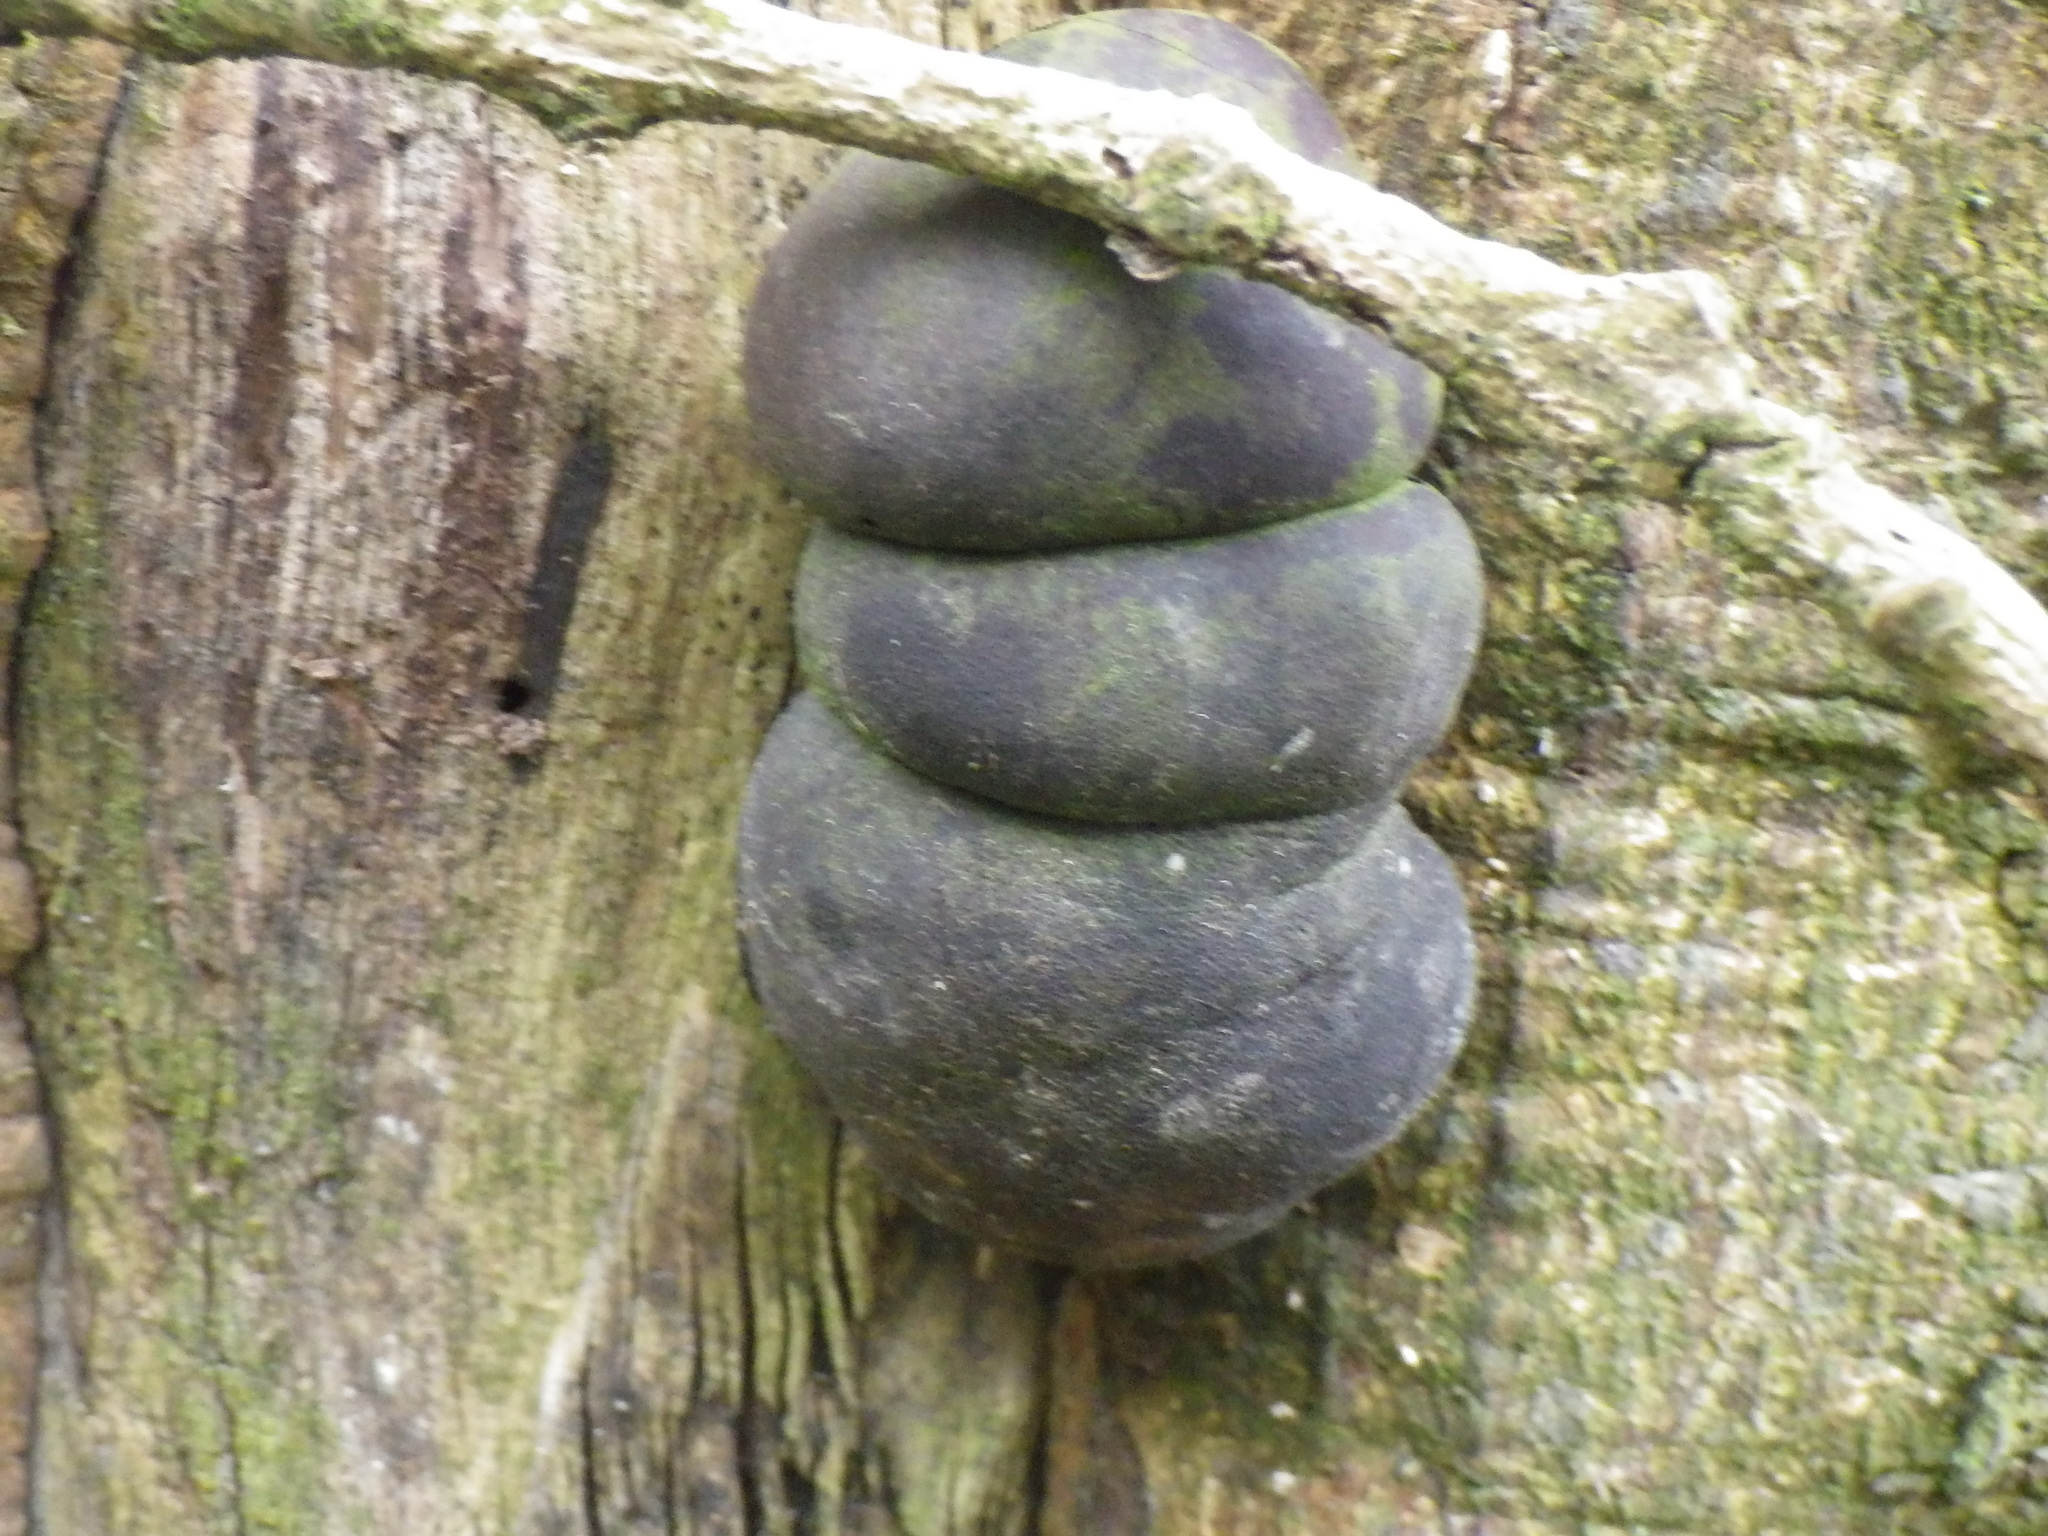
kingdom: Fungi
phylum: Ascomycota
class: Sordariomycetes
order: Xylariales
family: Hypoxylaceae
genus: Daldinia
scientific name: Daldinia concentrica
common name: Cramp balls
